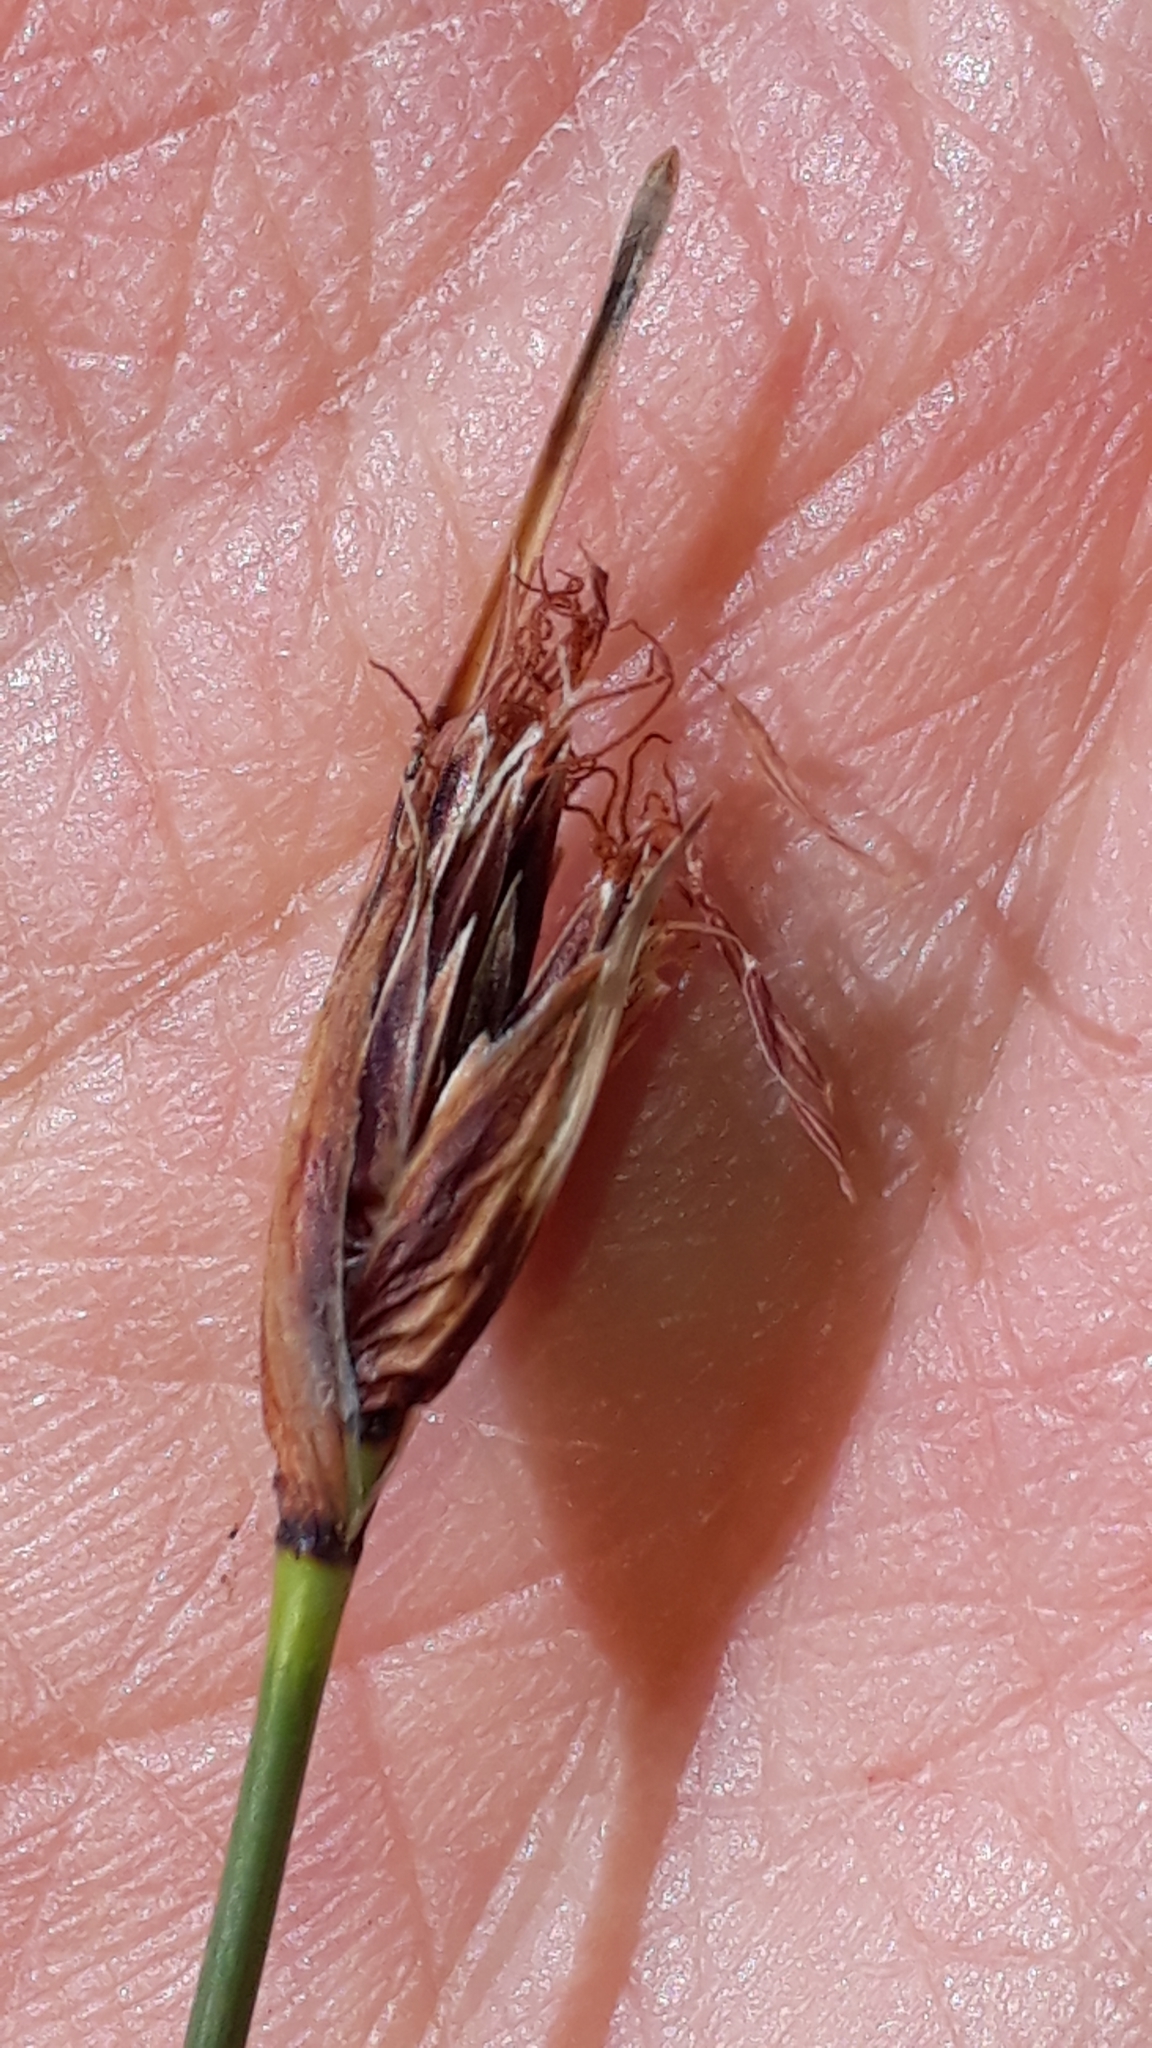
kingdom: Plantae
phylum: Tracheophyta
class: Liliopsida
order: Poales
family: Cyperaceae
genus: Schoenus
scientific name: Schoenus nigricans
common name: Black bog-rush
